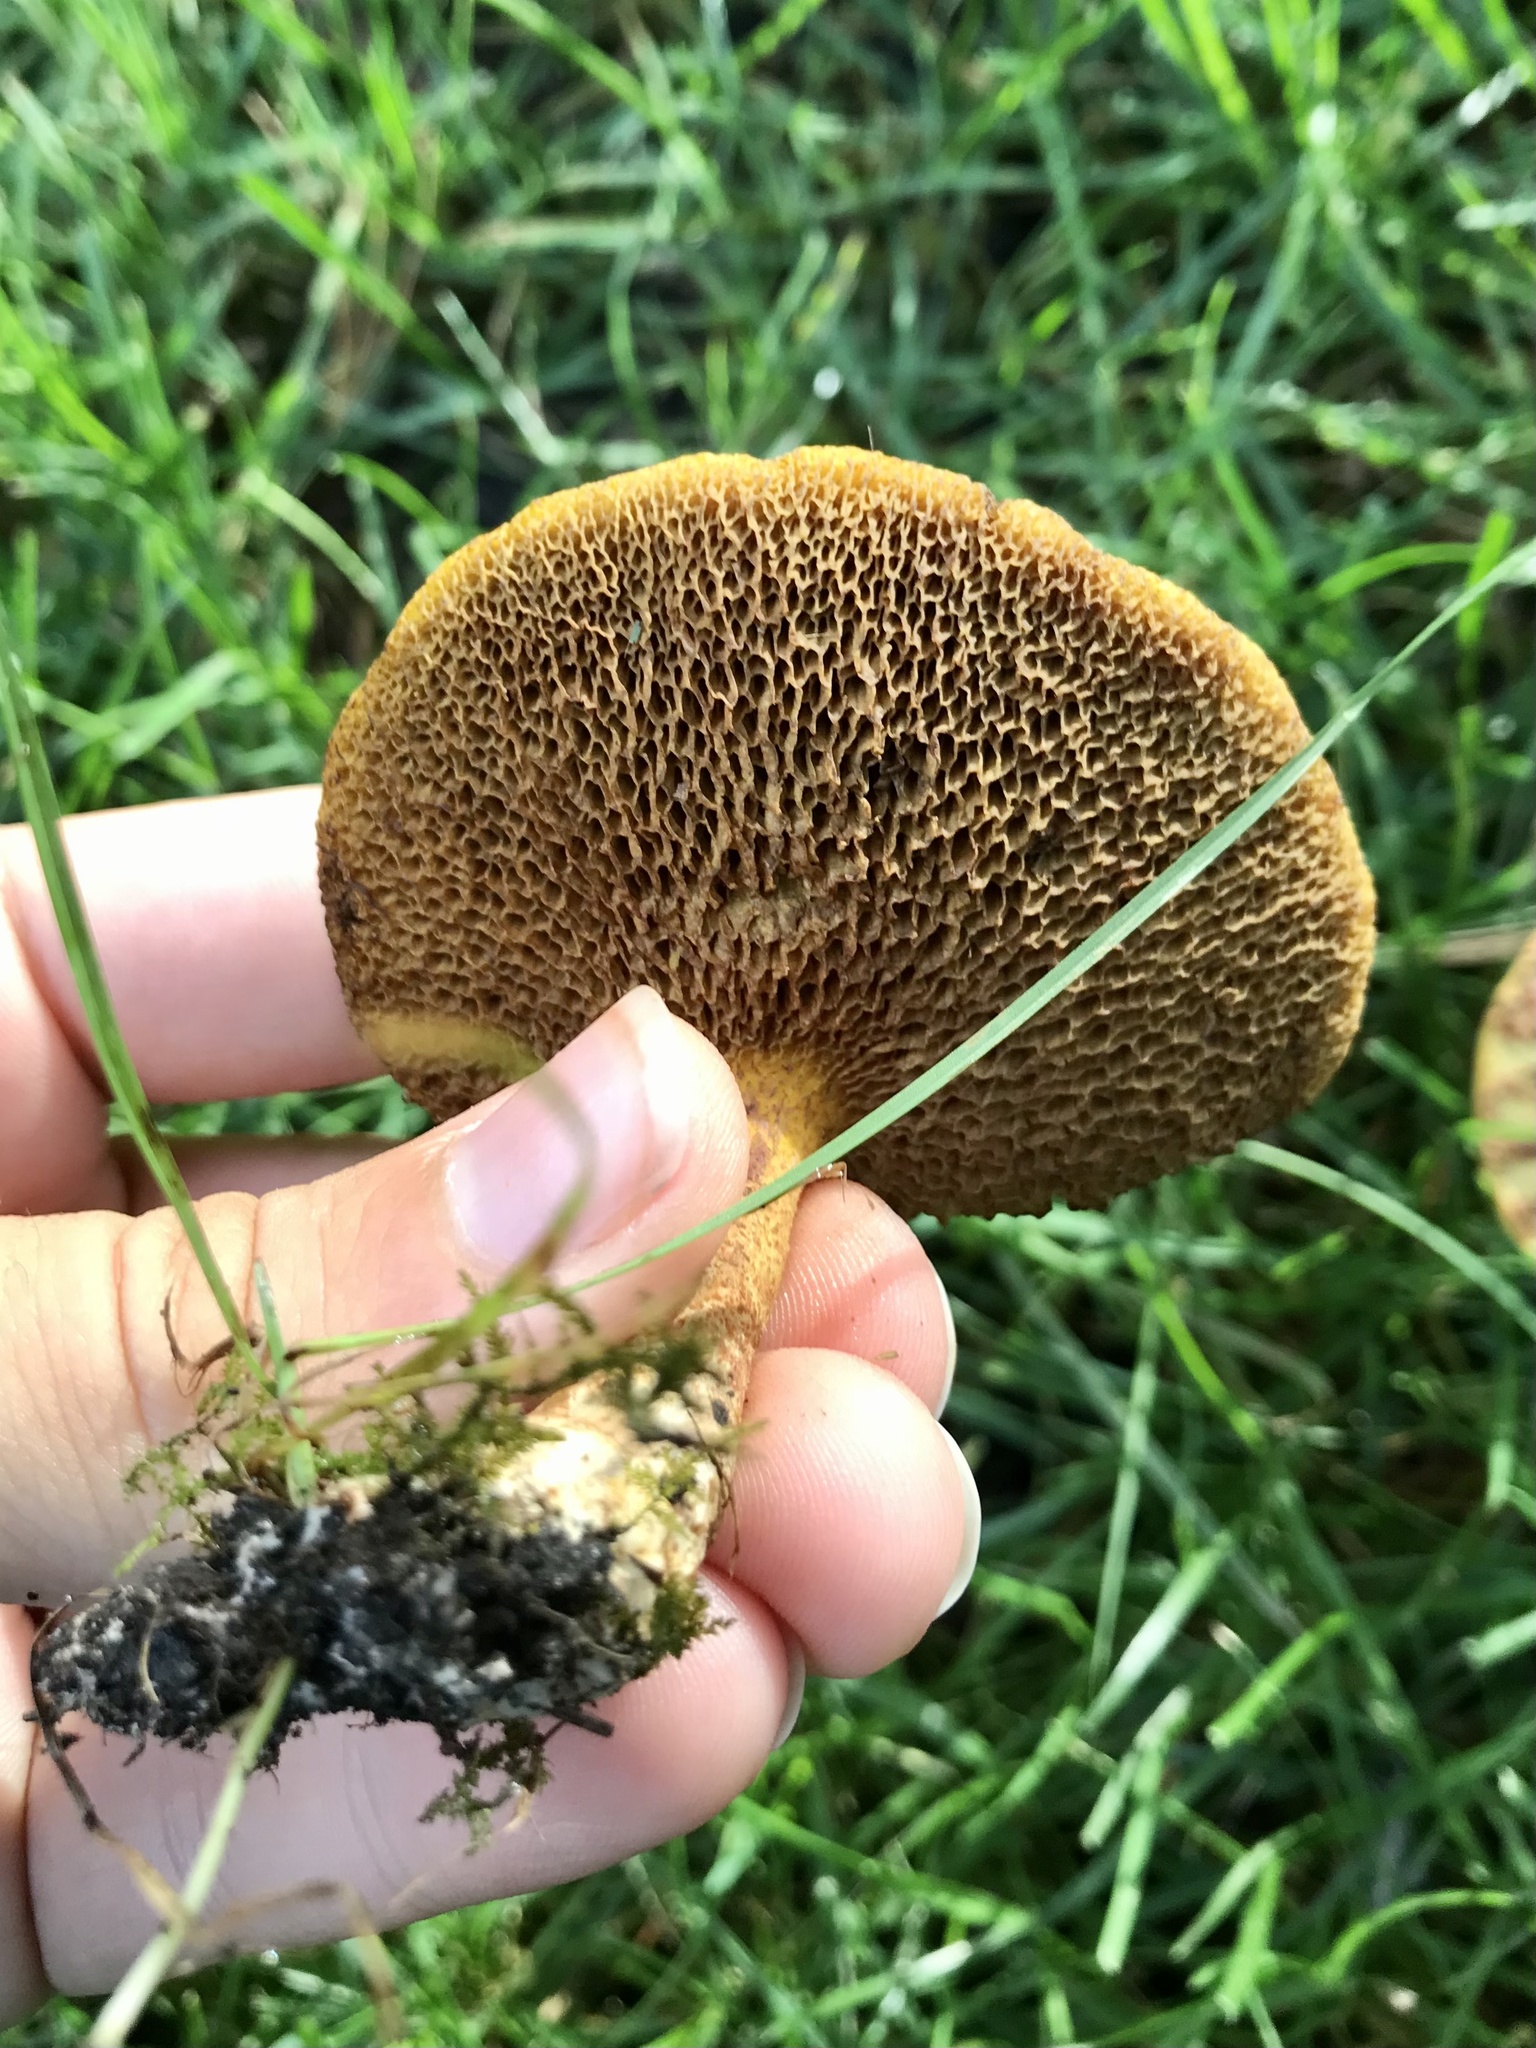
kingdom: Fungi
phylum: Basidiomycota
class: Agaricomycetes
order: Boletales
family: Suillaceae
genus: Suillus
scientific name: Suillus americanus
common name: Chicken fat mushroom
